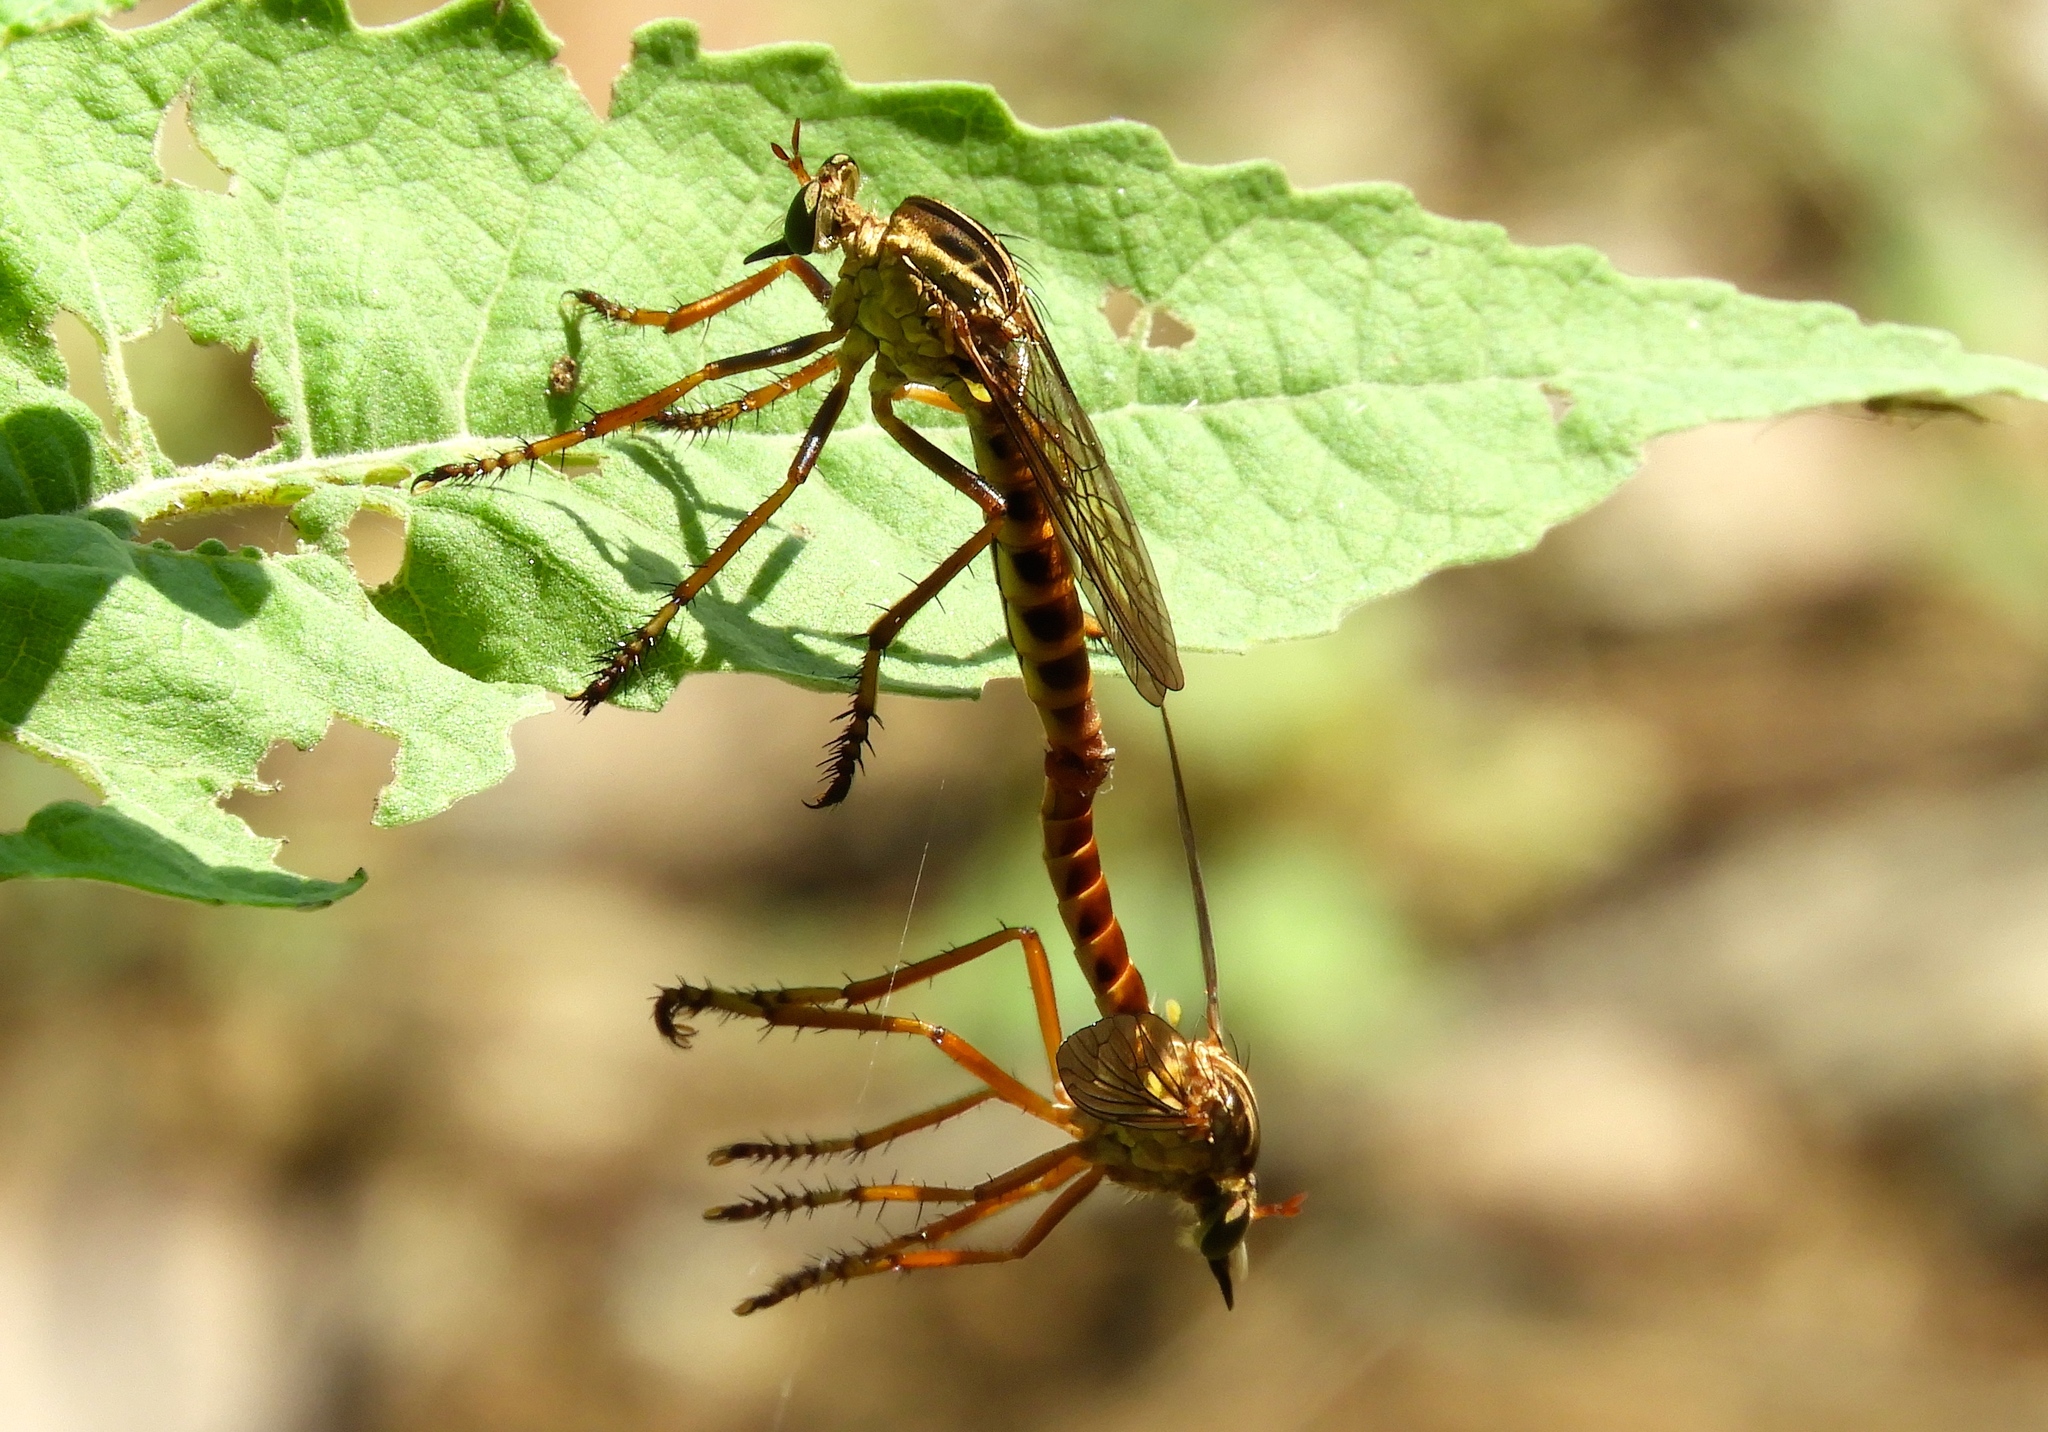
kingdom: Animalia
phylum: Arthropoda
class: Insecta
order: Diptera
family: Asilidae
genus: Diogmites
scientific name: Diogmites
